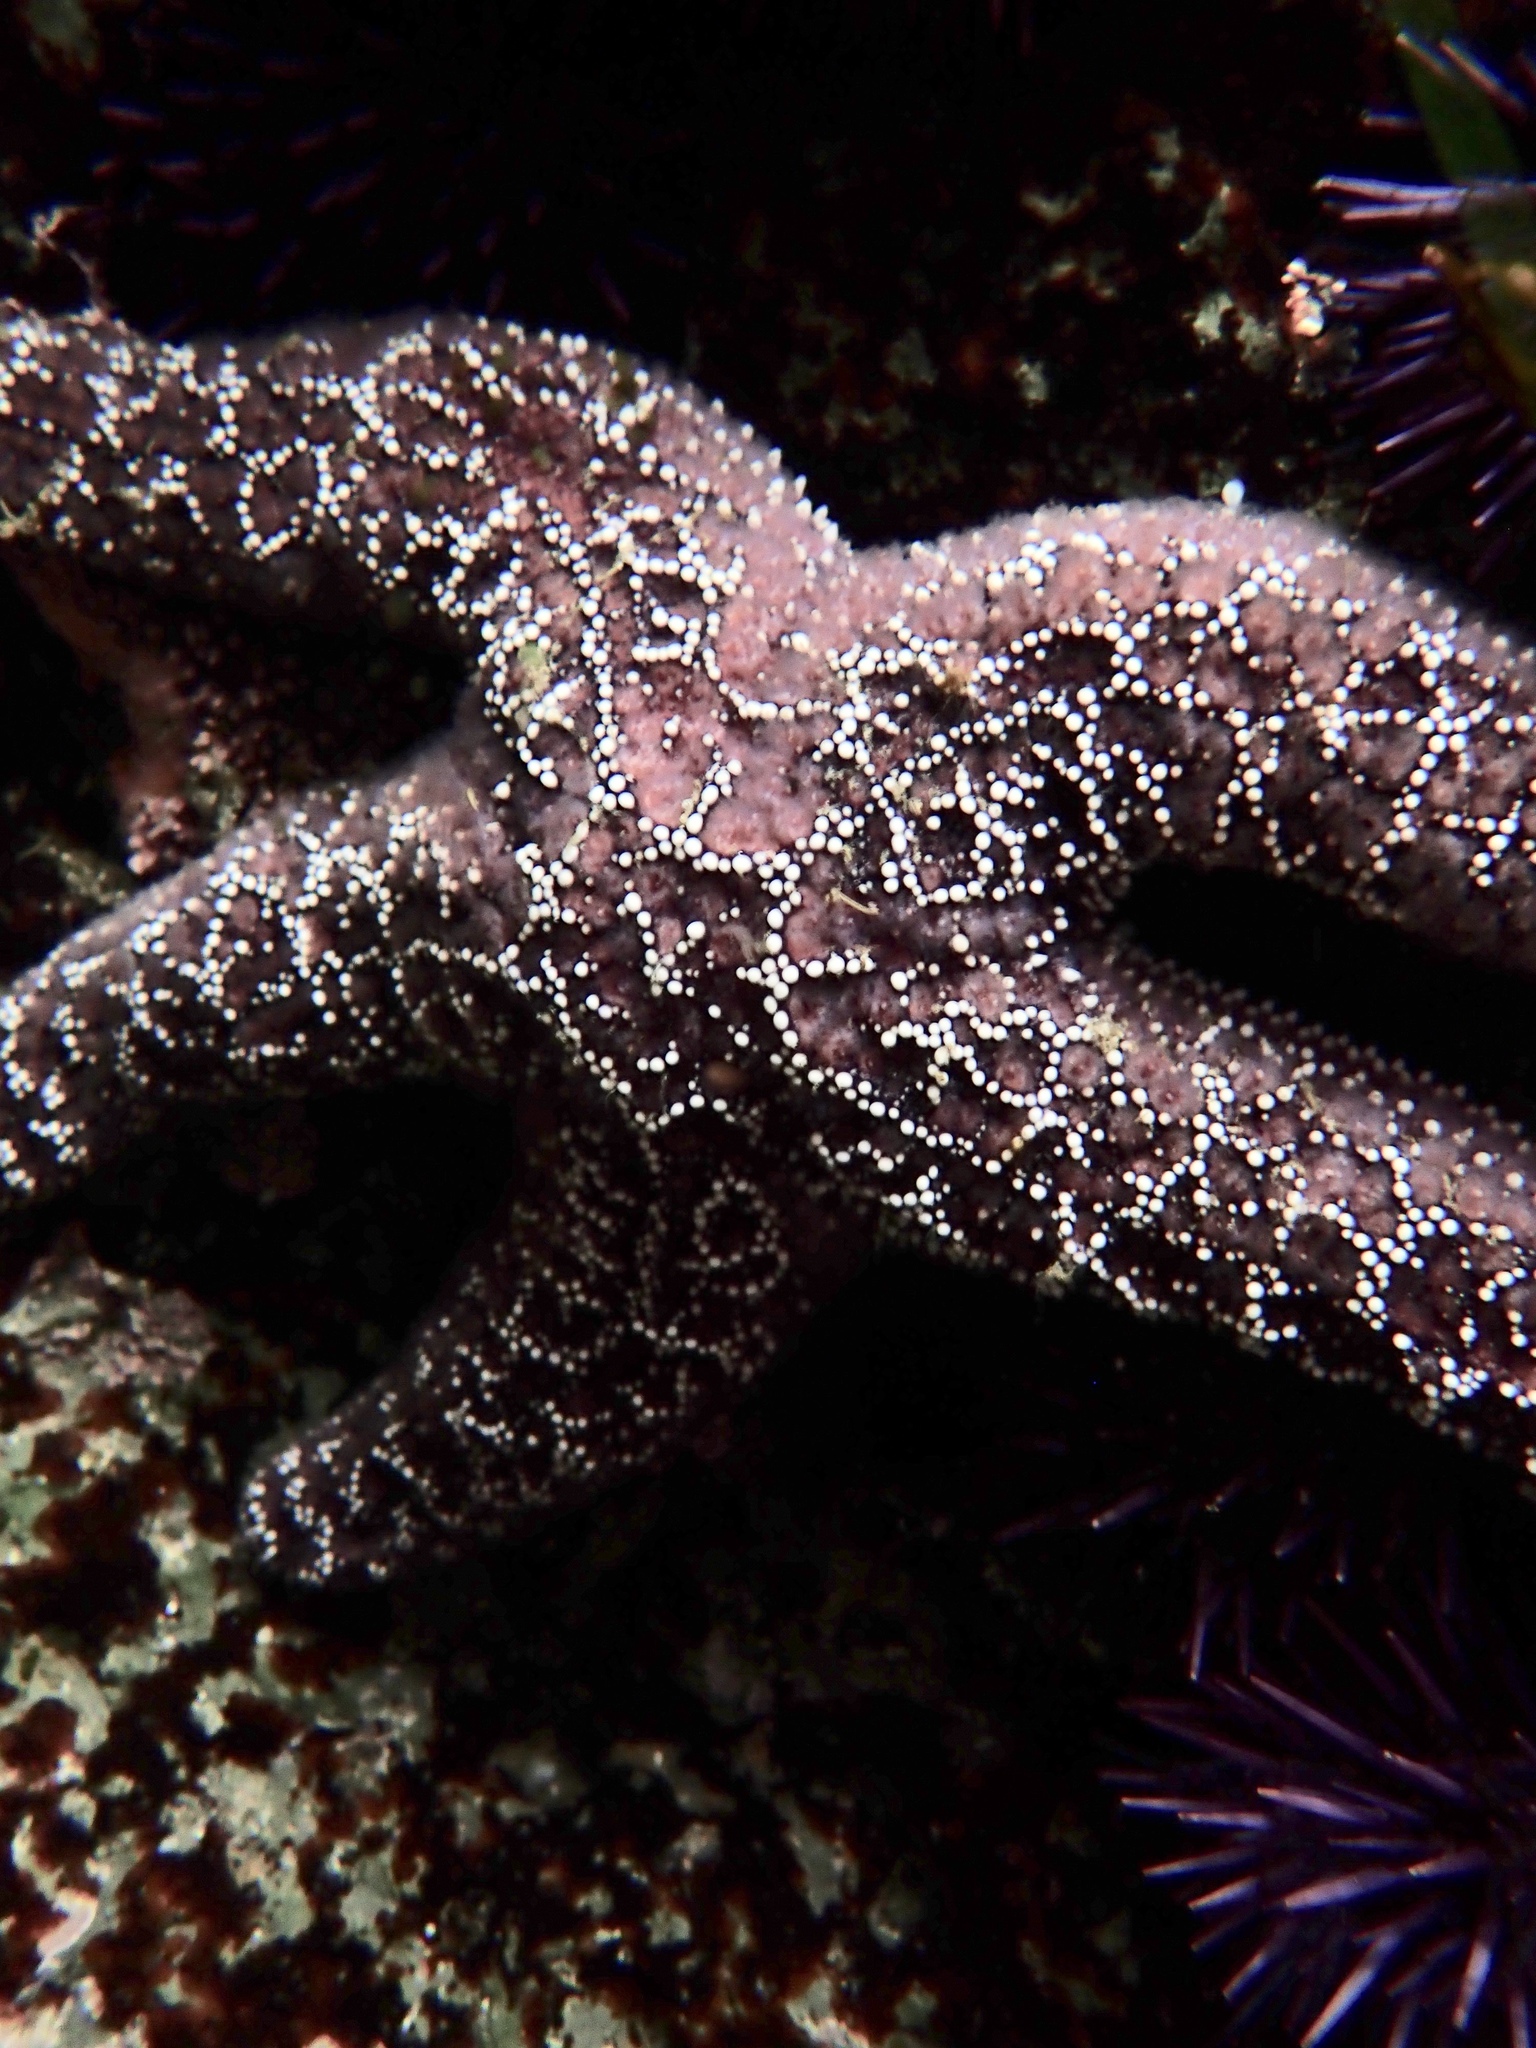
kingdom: Animalia
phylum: Echinodermata
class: Asteroidea
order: Forcipulatida
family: Asteriidae
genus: Pisaster
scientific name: Pisaster ochraceus
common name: Ochre stars
